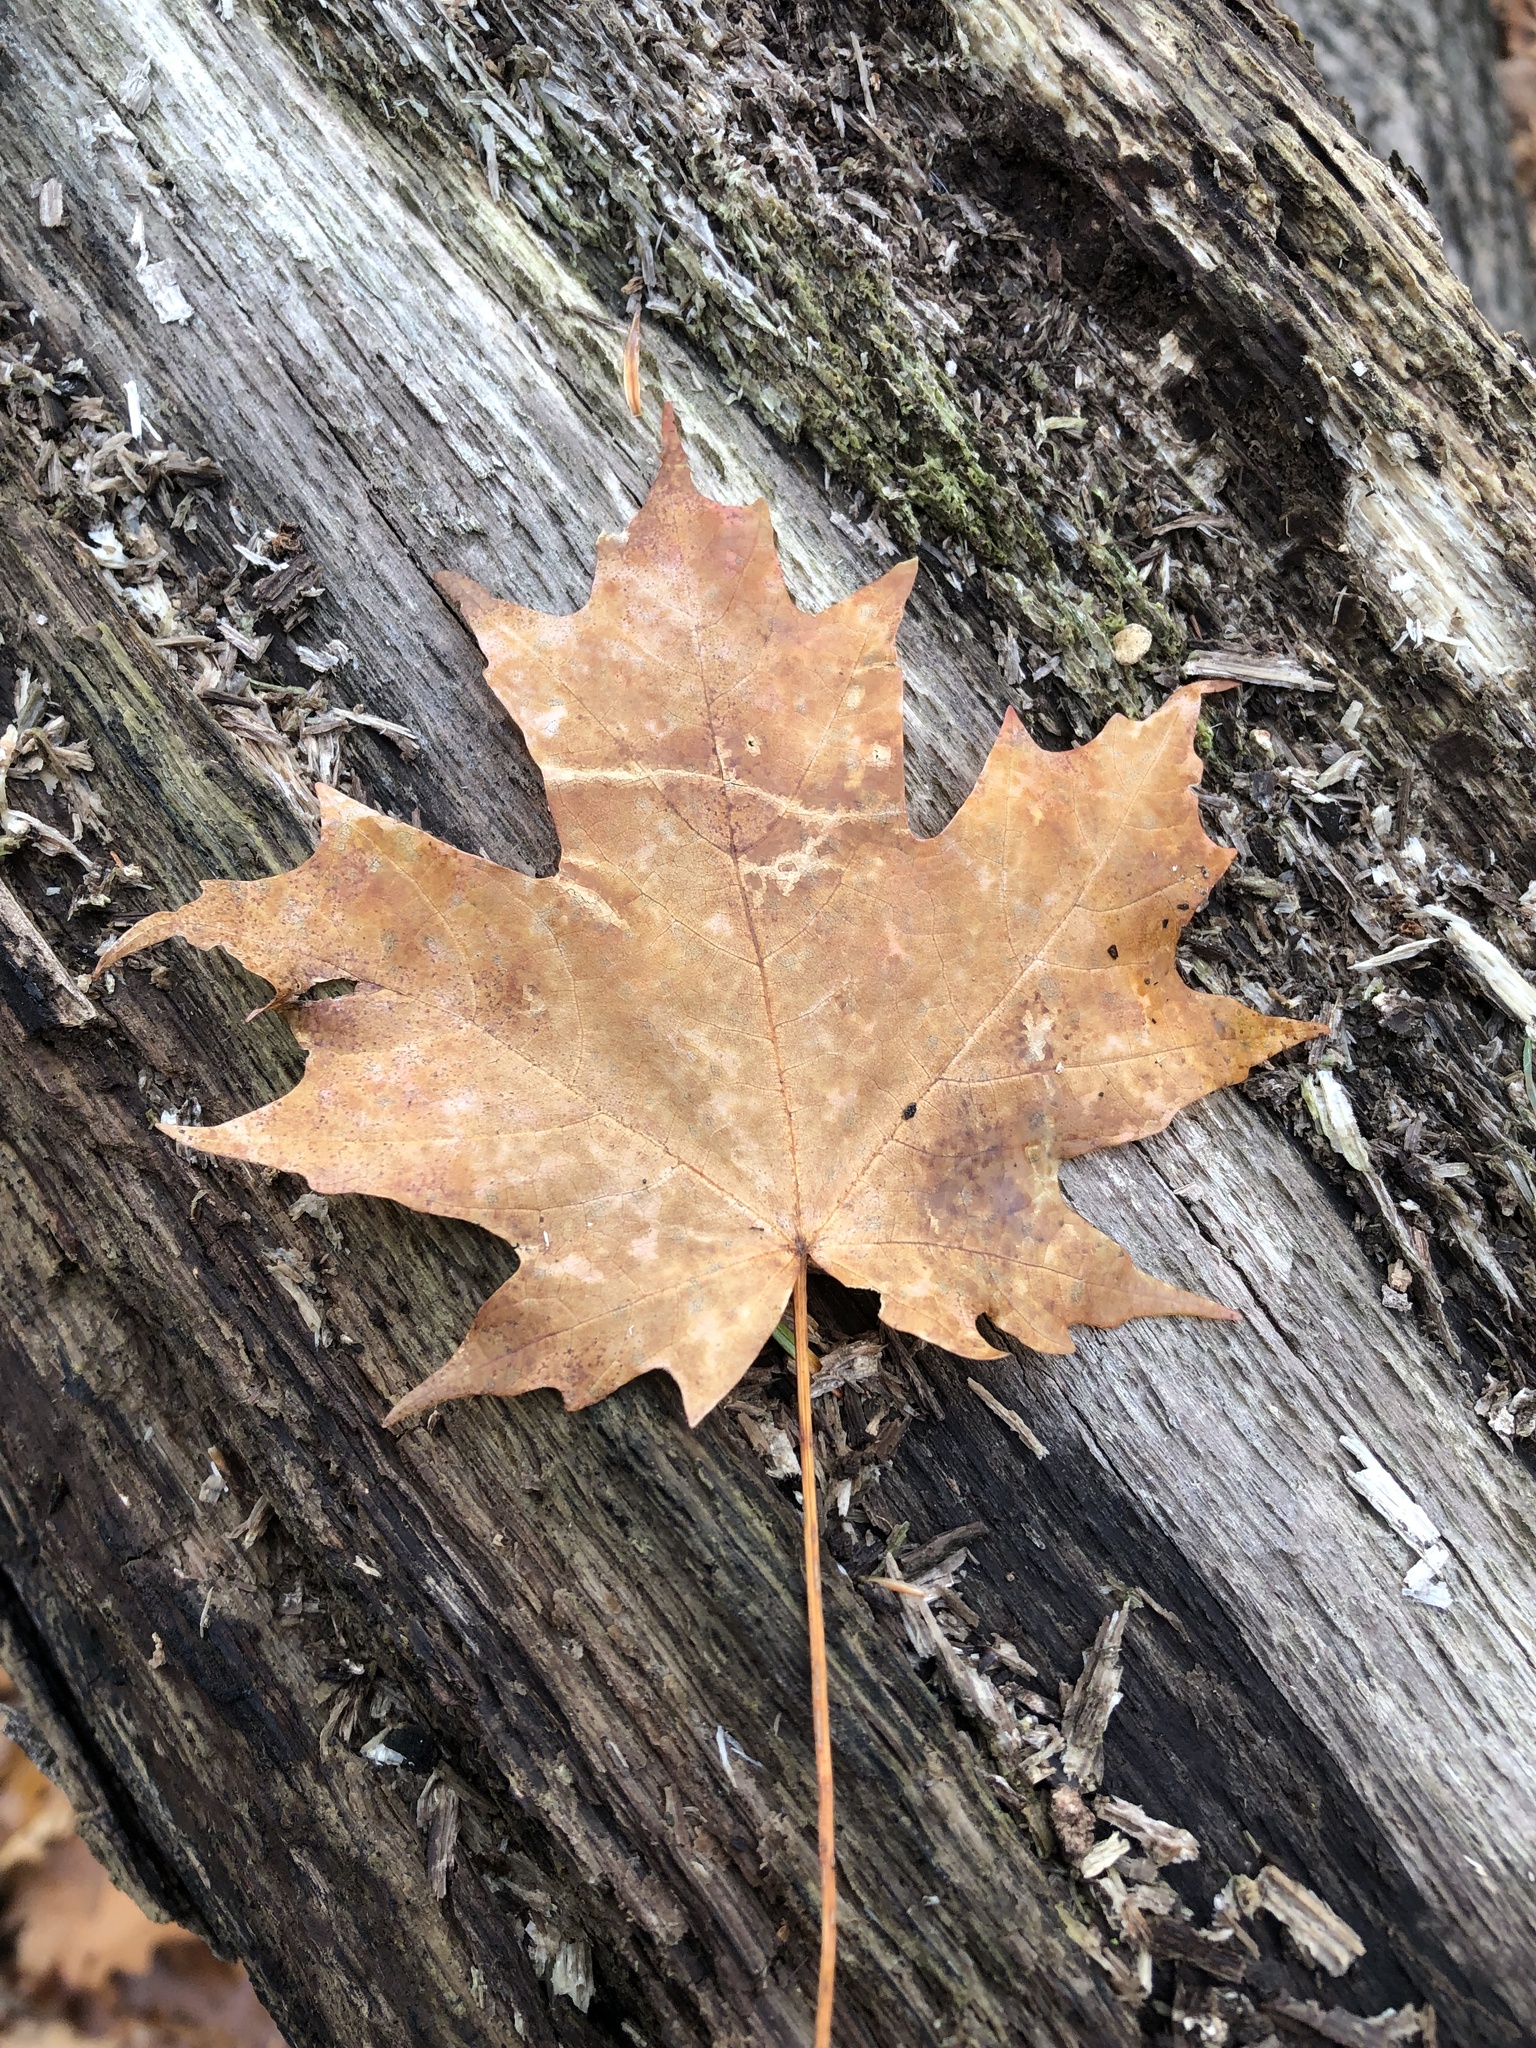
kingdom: Plantae
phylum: Tracheophyta
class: Magnoliopsida
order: Sapindales
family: Sapindaceae
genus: Acer
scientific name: Acer saccharum
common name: Sugar maple
